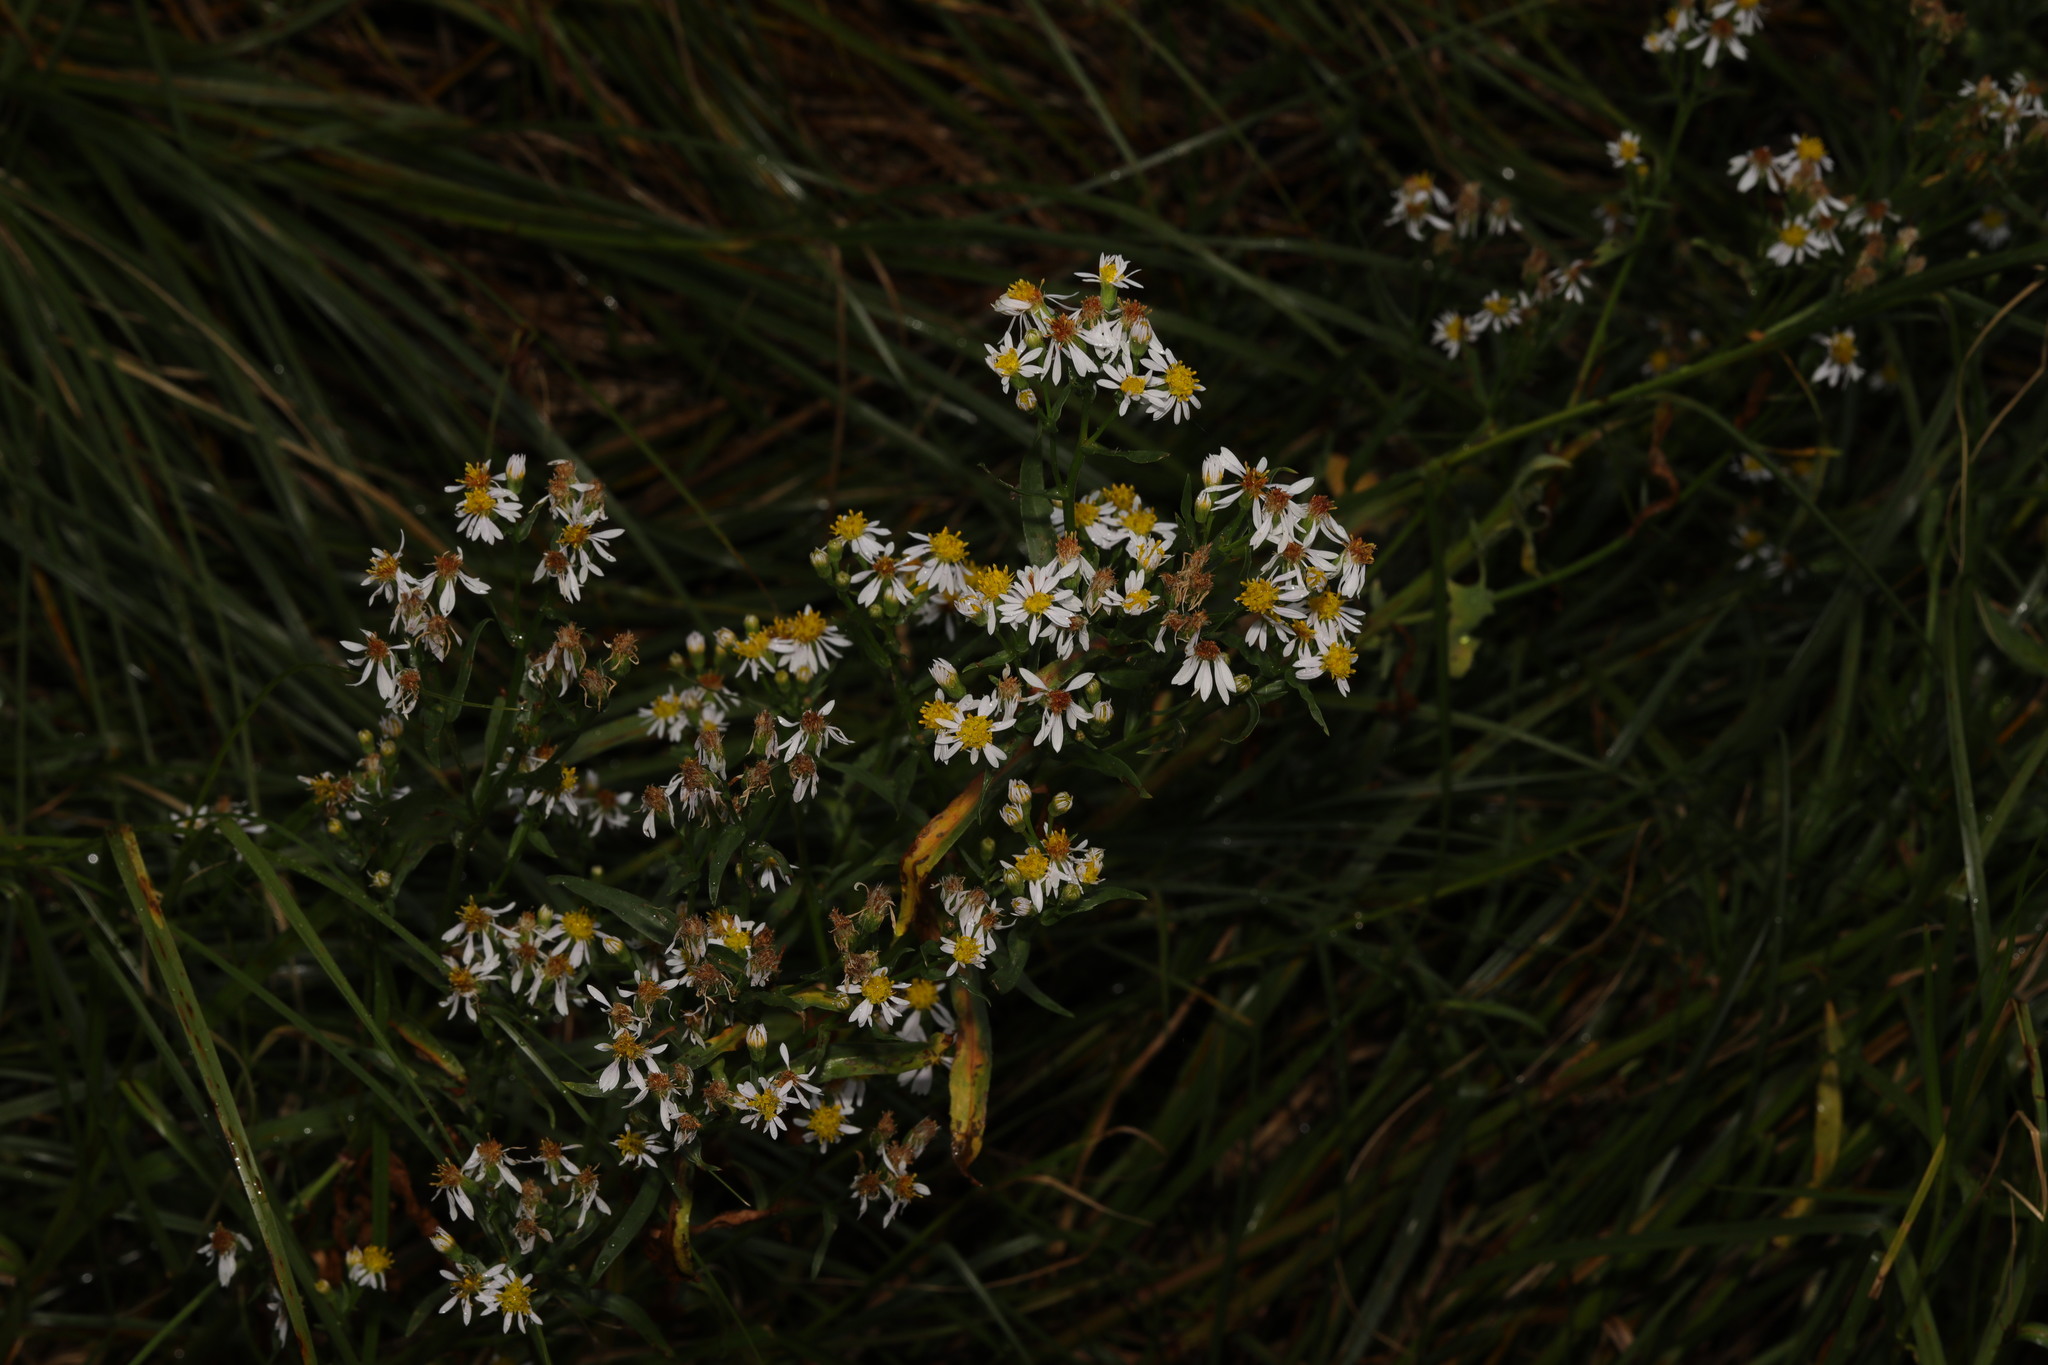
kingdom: Plantae
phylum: Tracheophyta
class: Magnoliopsida
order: Asterales
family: Asteraceae
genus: Tripolium
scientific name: Tripolium pannonicum
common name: Sea aster
